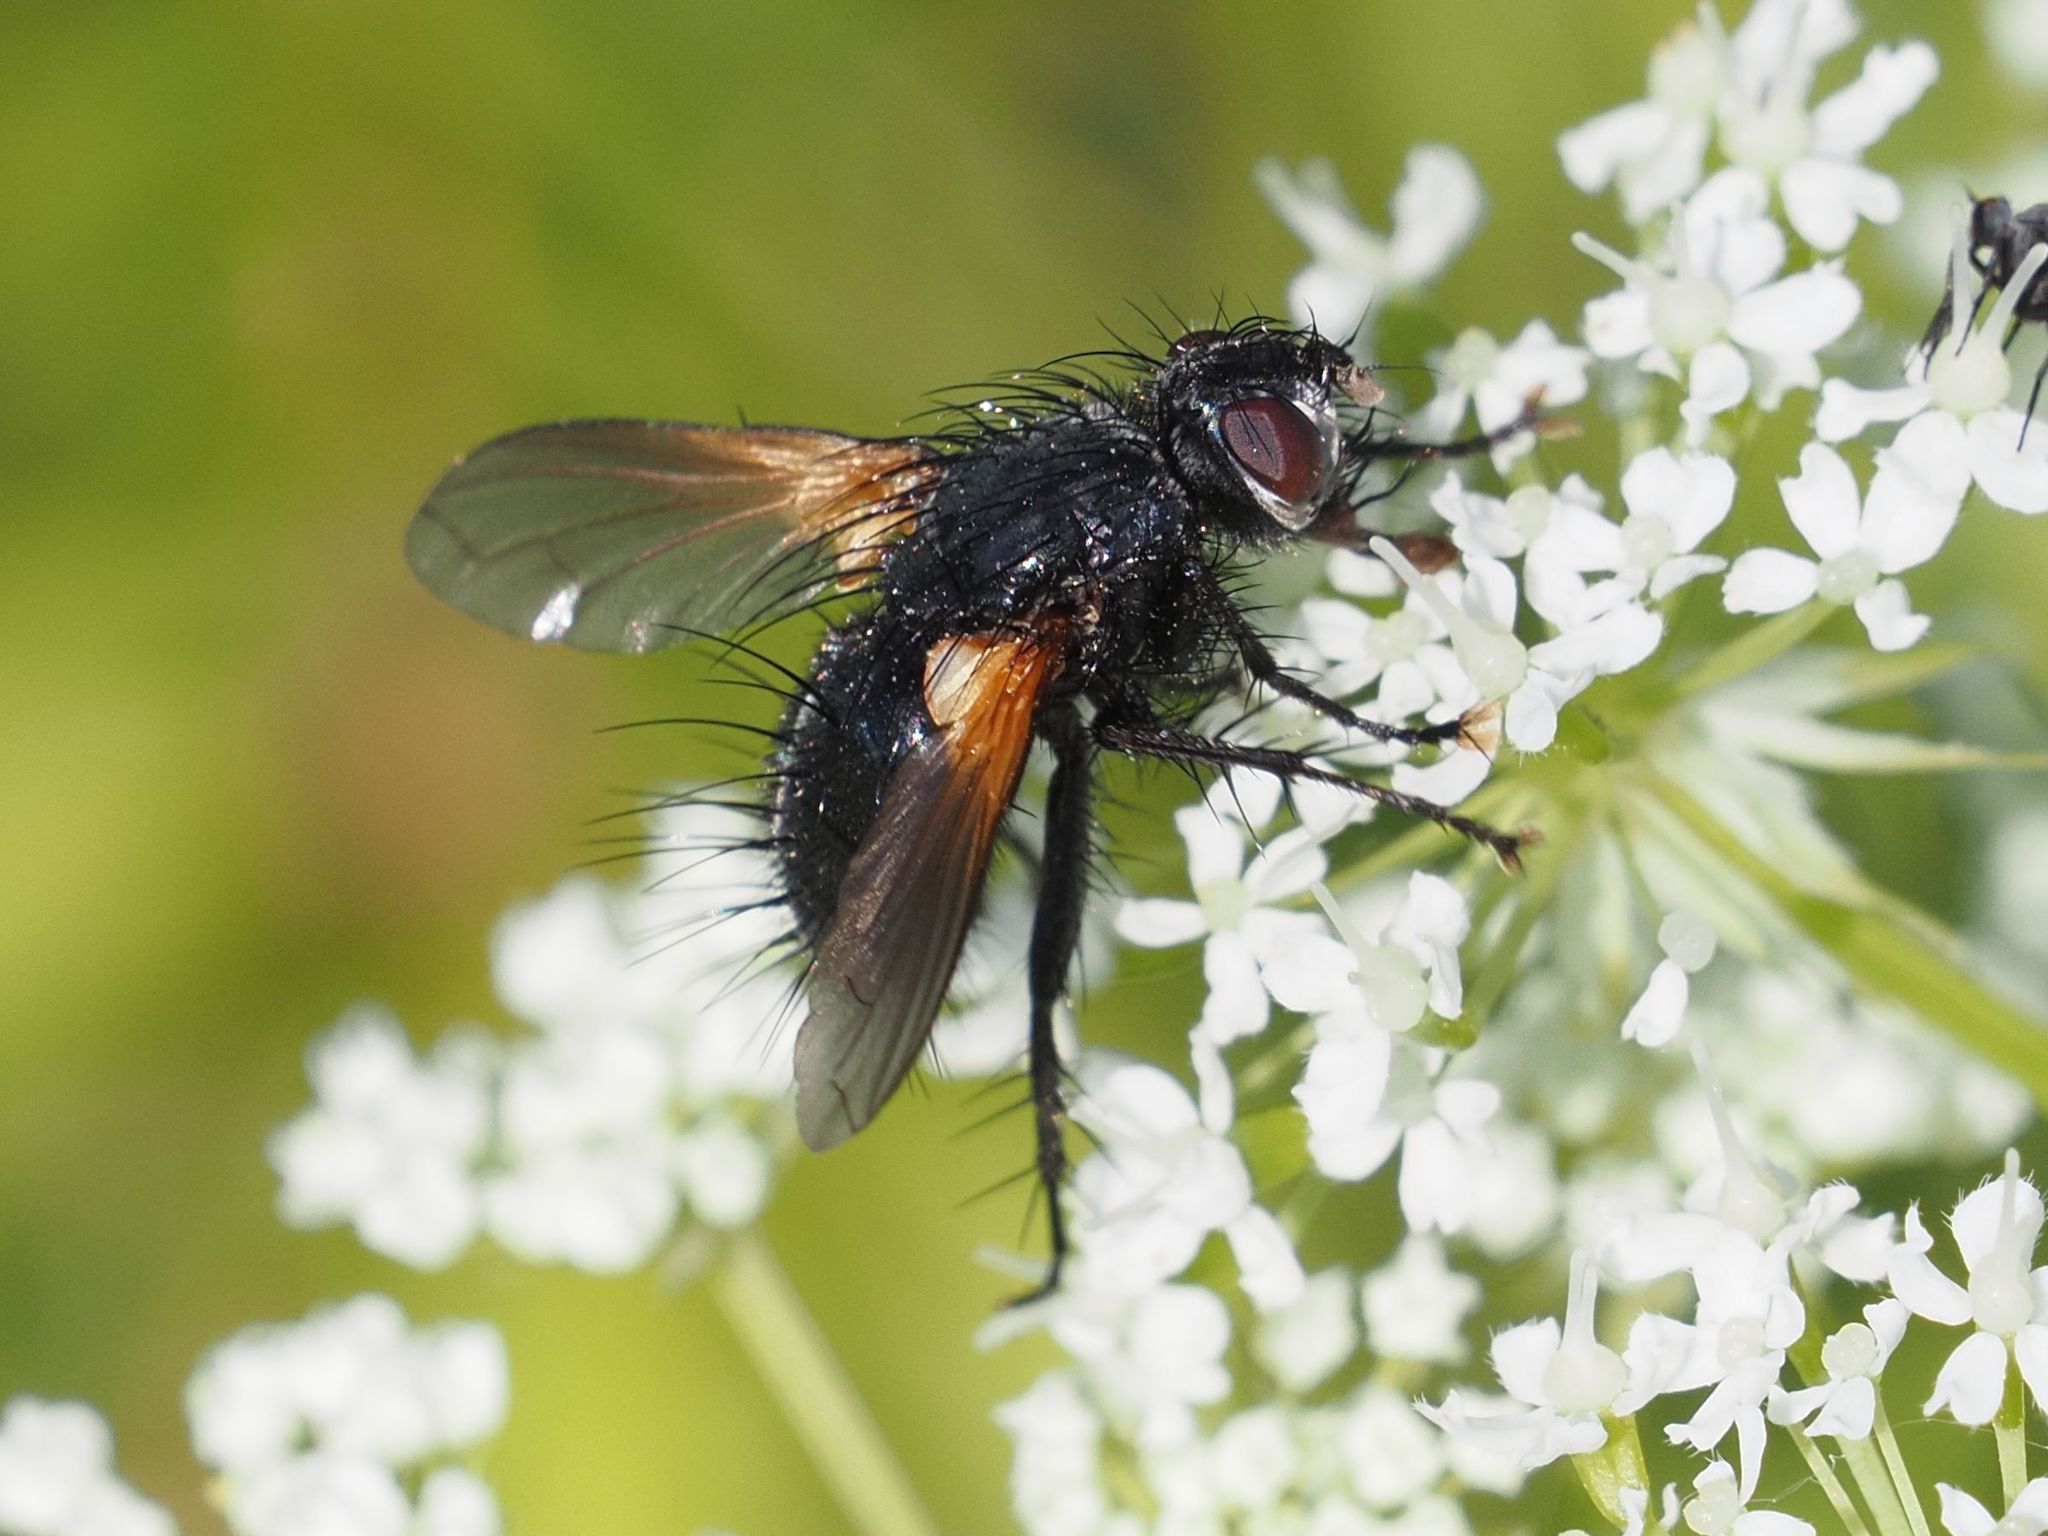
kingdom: Animalia
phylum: Arthropoda
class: Insecta
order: Diptera
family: Tachinidae
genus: Zophomyia
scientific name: Zophomyia temula
